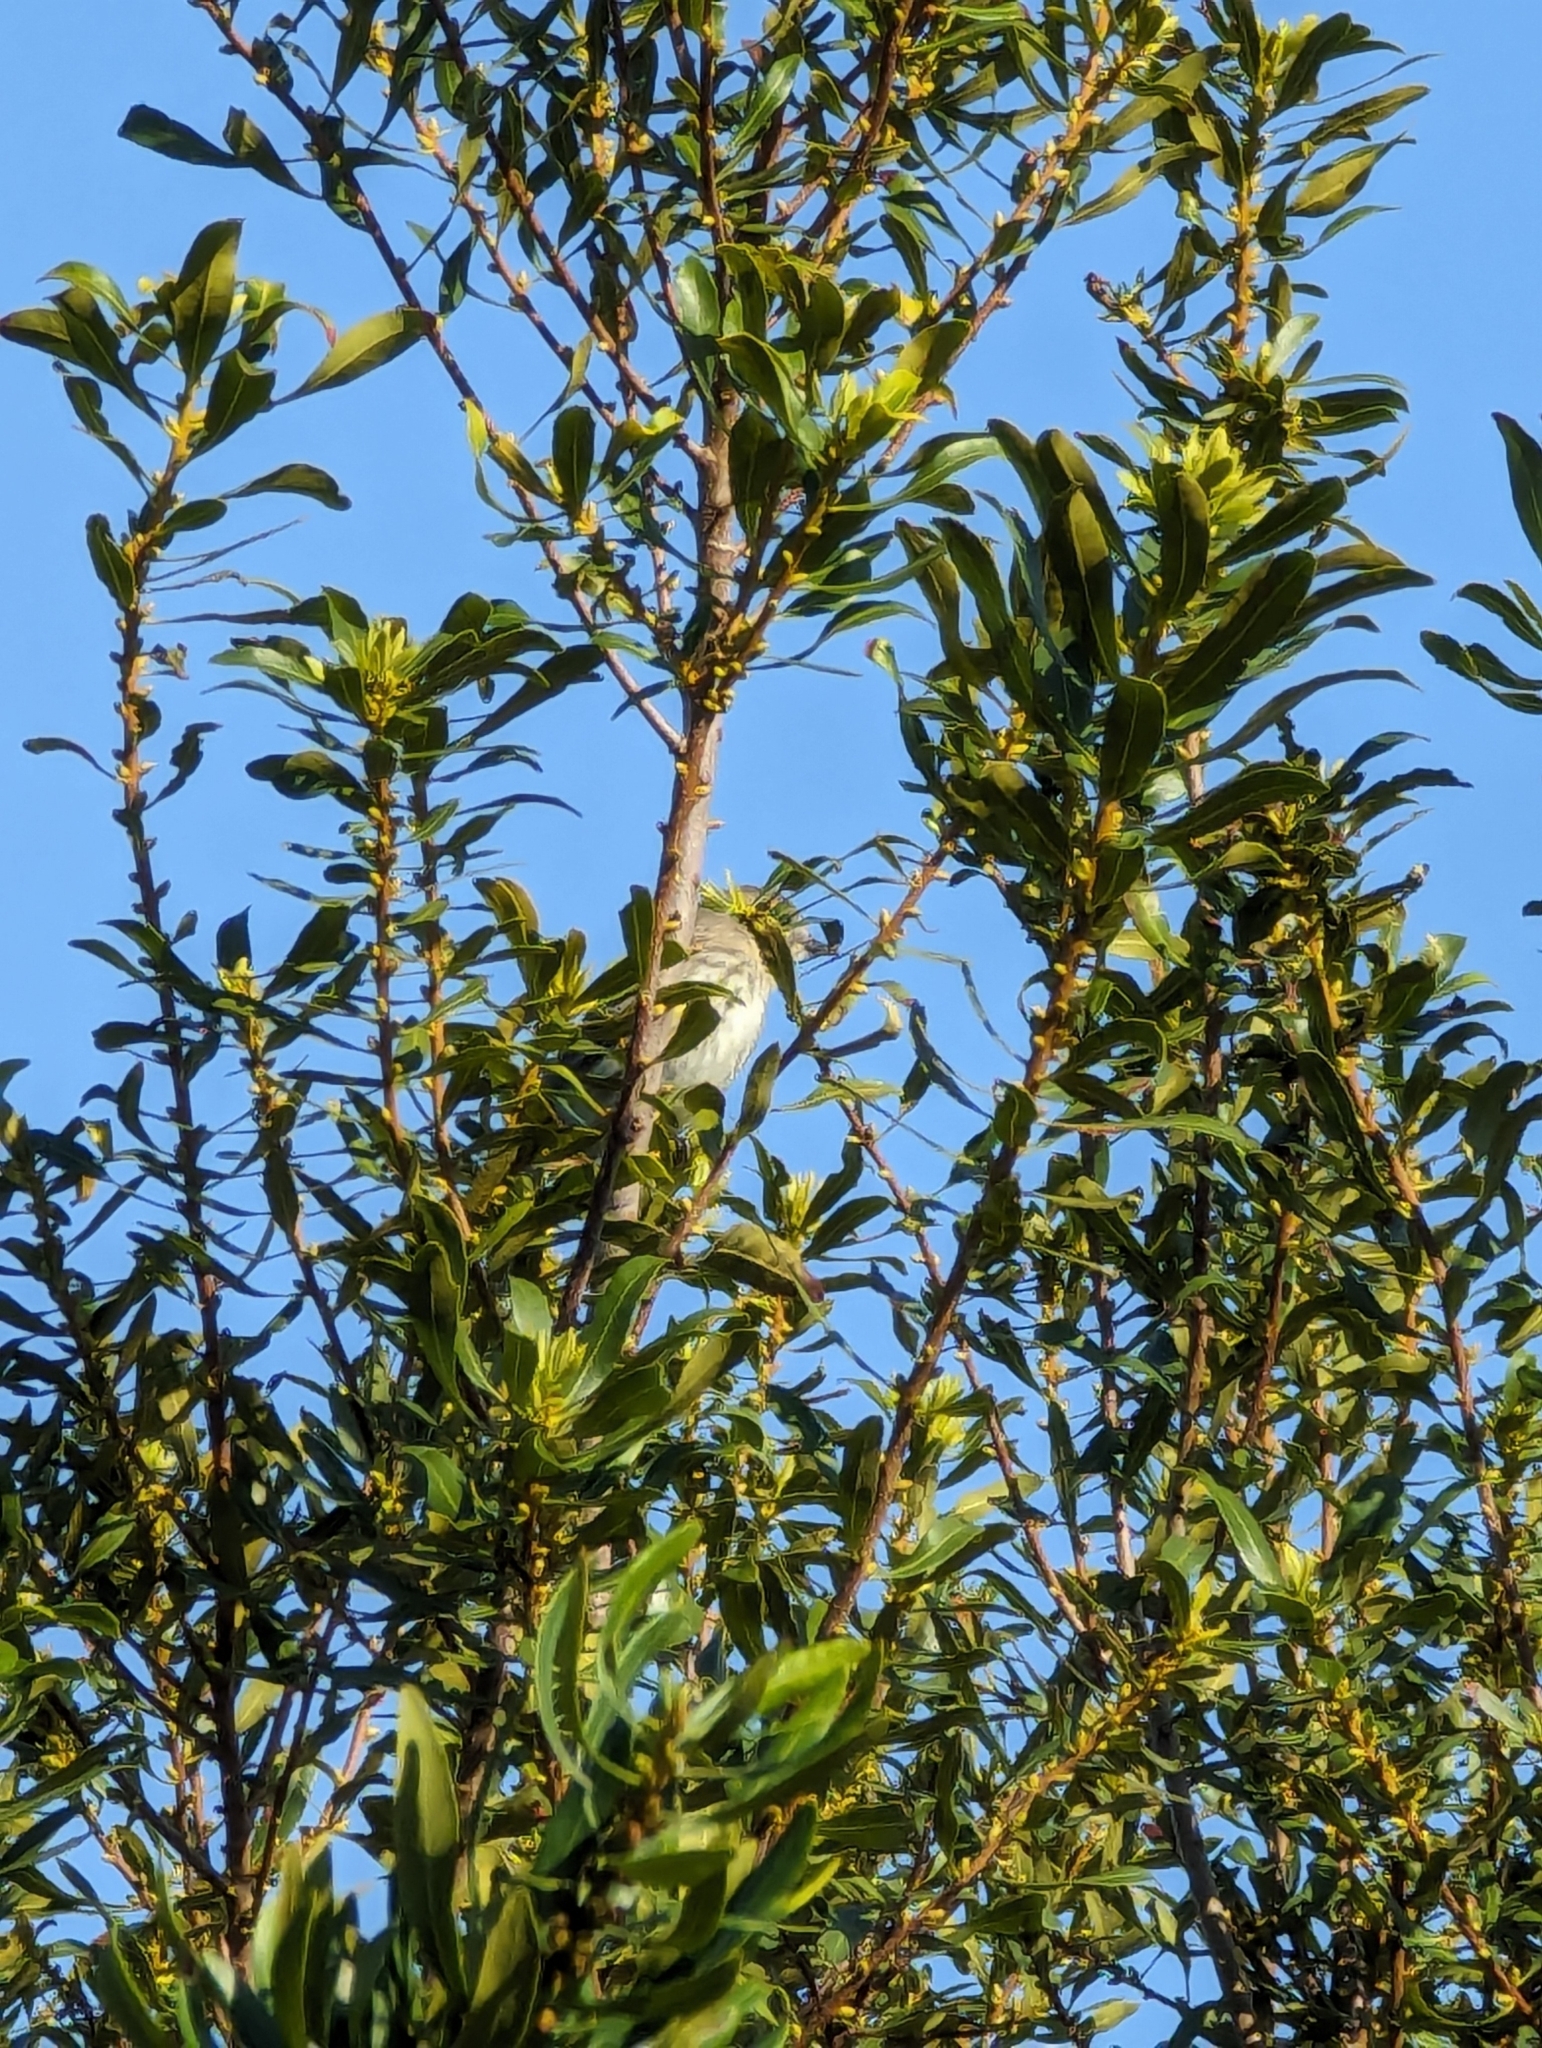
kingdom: Animalia
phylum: Chordata
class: Aves
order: Passeriformes
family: Parulidae
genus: Setophaga
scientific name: Setophaga coronata
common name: Myrtle warbler
